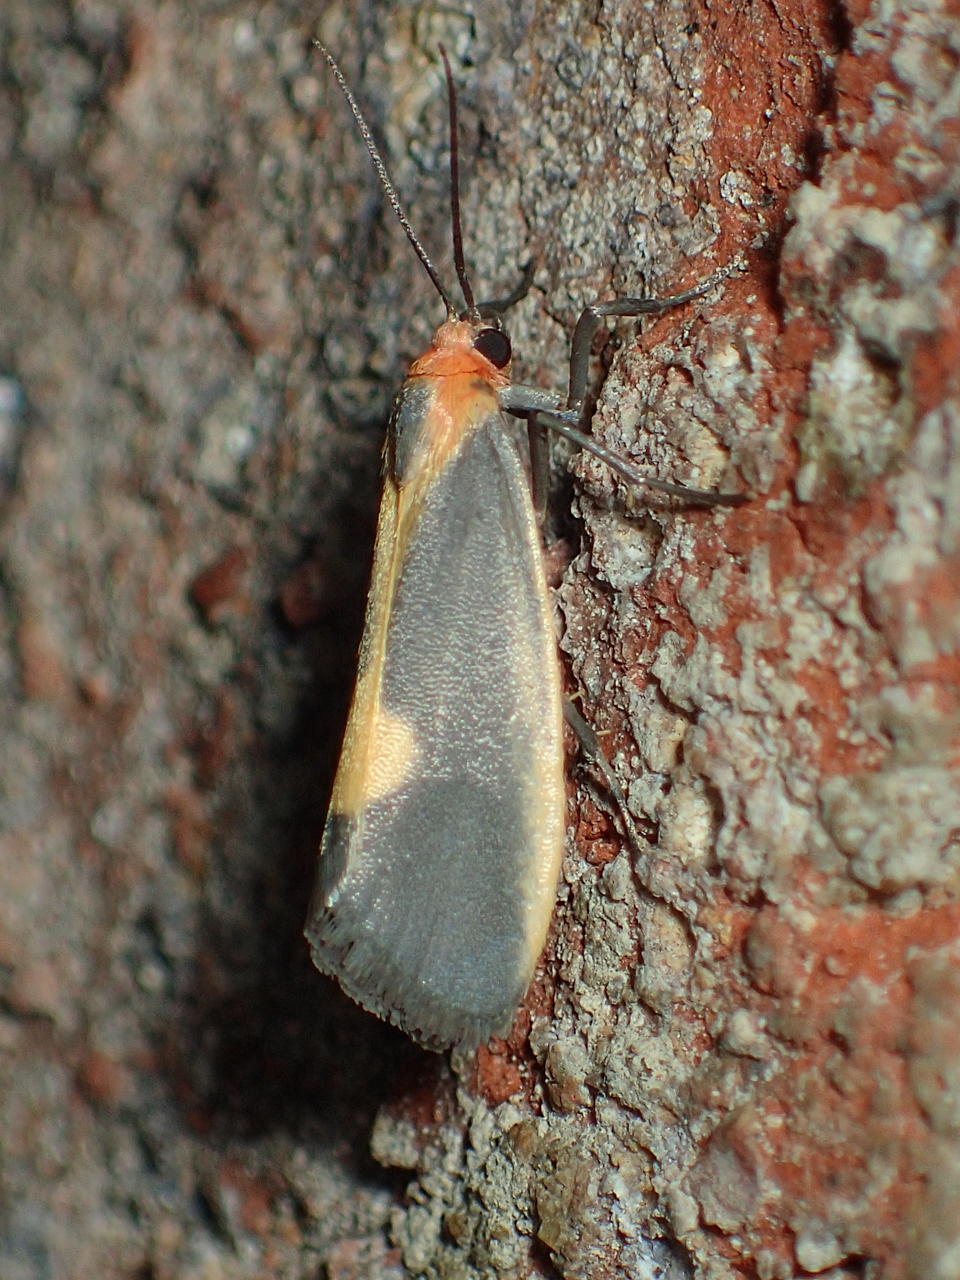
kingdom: Animalia
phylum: Arthropoda
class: Insecta
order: Lepidoptera
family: Erebidae
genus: Cisthene
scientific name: Cisthene plumbea
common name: Lead colored lichen moth
